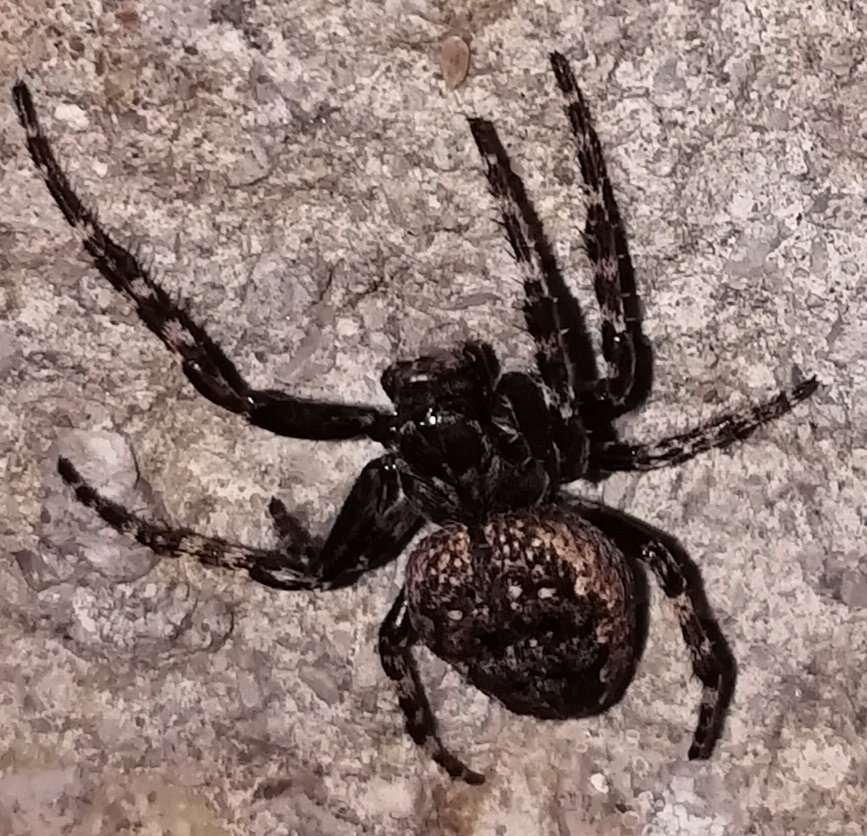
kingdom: Animalia
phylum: Arthropoda
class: Arachnida
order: Araneae
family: Araneidae
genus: Nuctenea
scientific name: Nuctenea umbratica
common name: Toad spider
